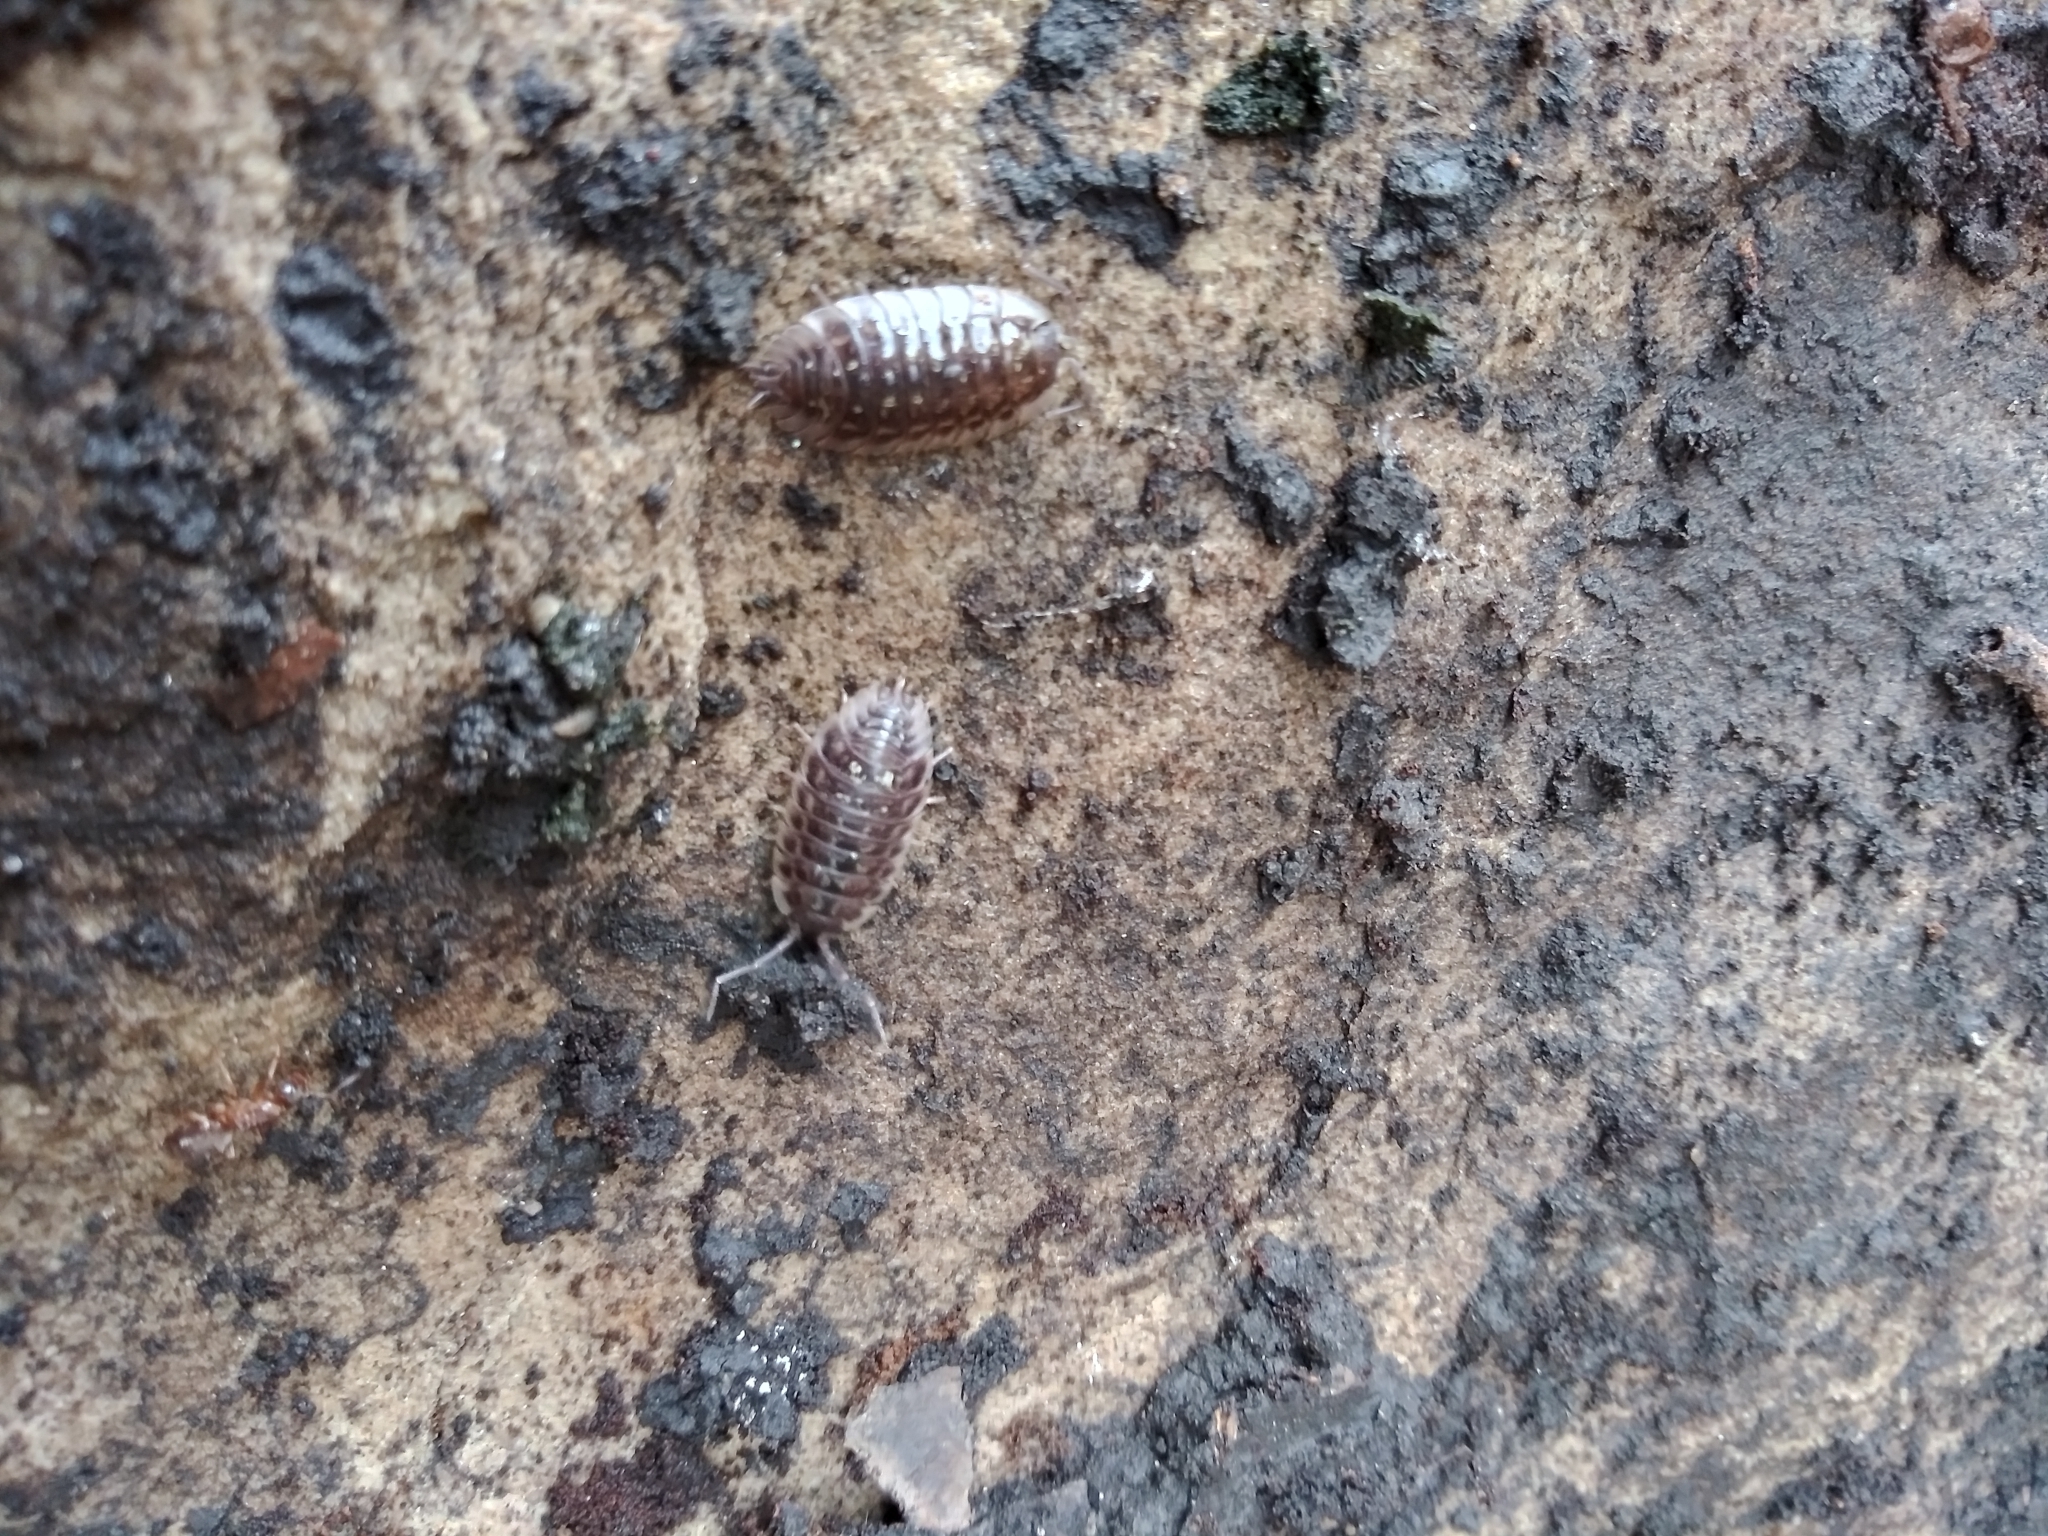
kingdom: Animalia
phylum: Arthropoda
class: Malacostraca
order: Isopoda
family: Oniscidae
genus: Oniscus
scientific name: Oniscus asellus
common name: Common shiny woodlouse
